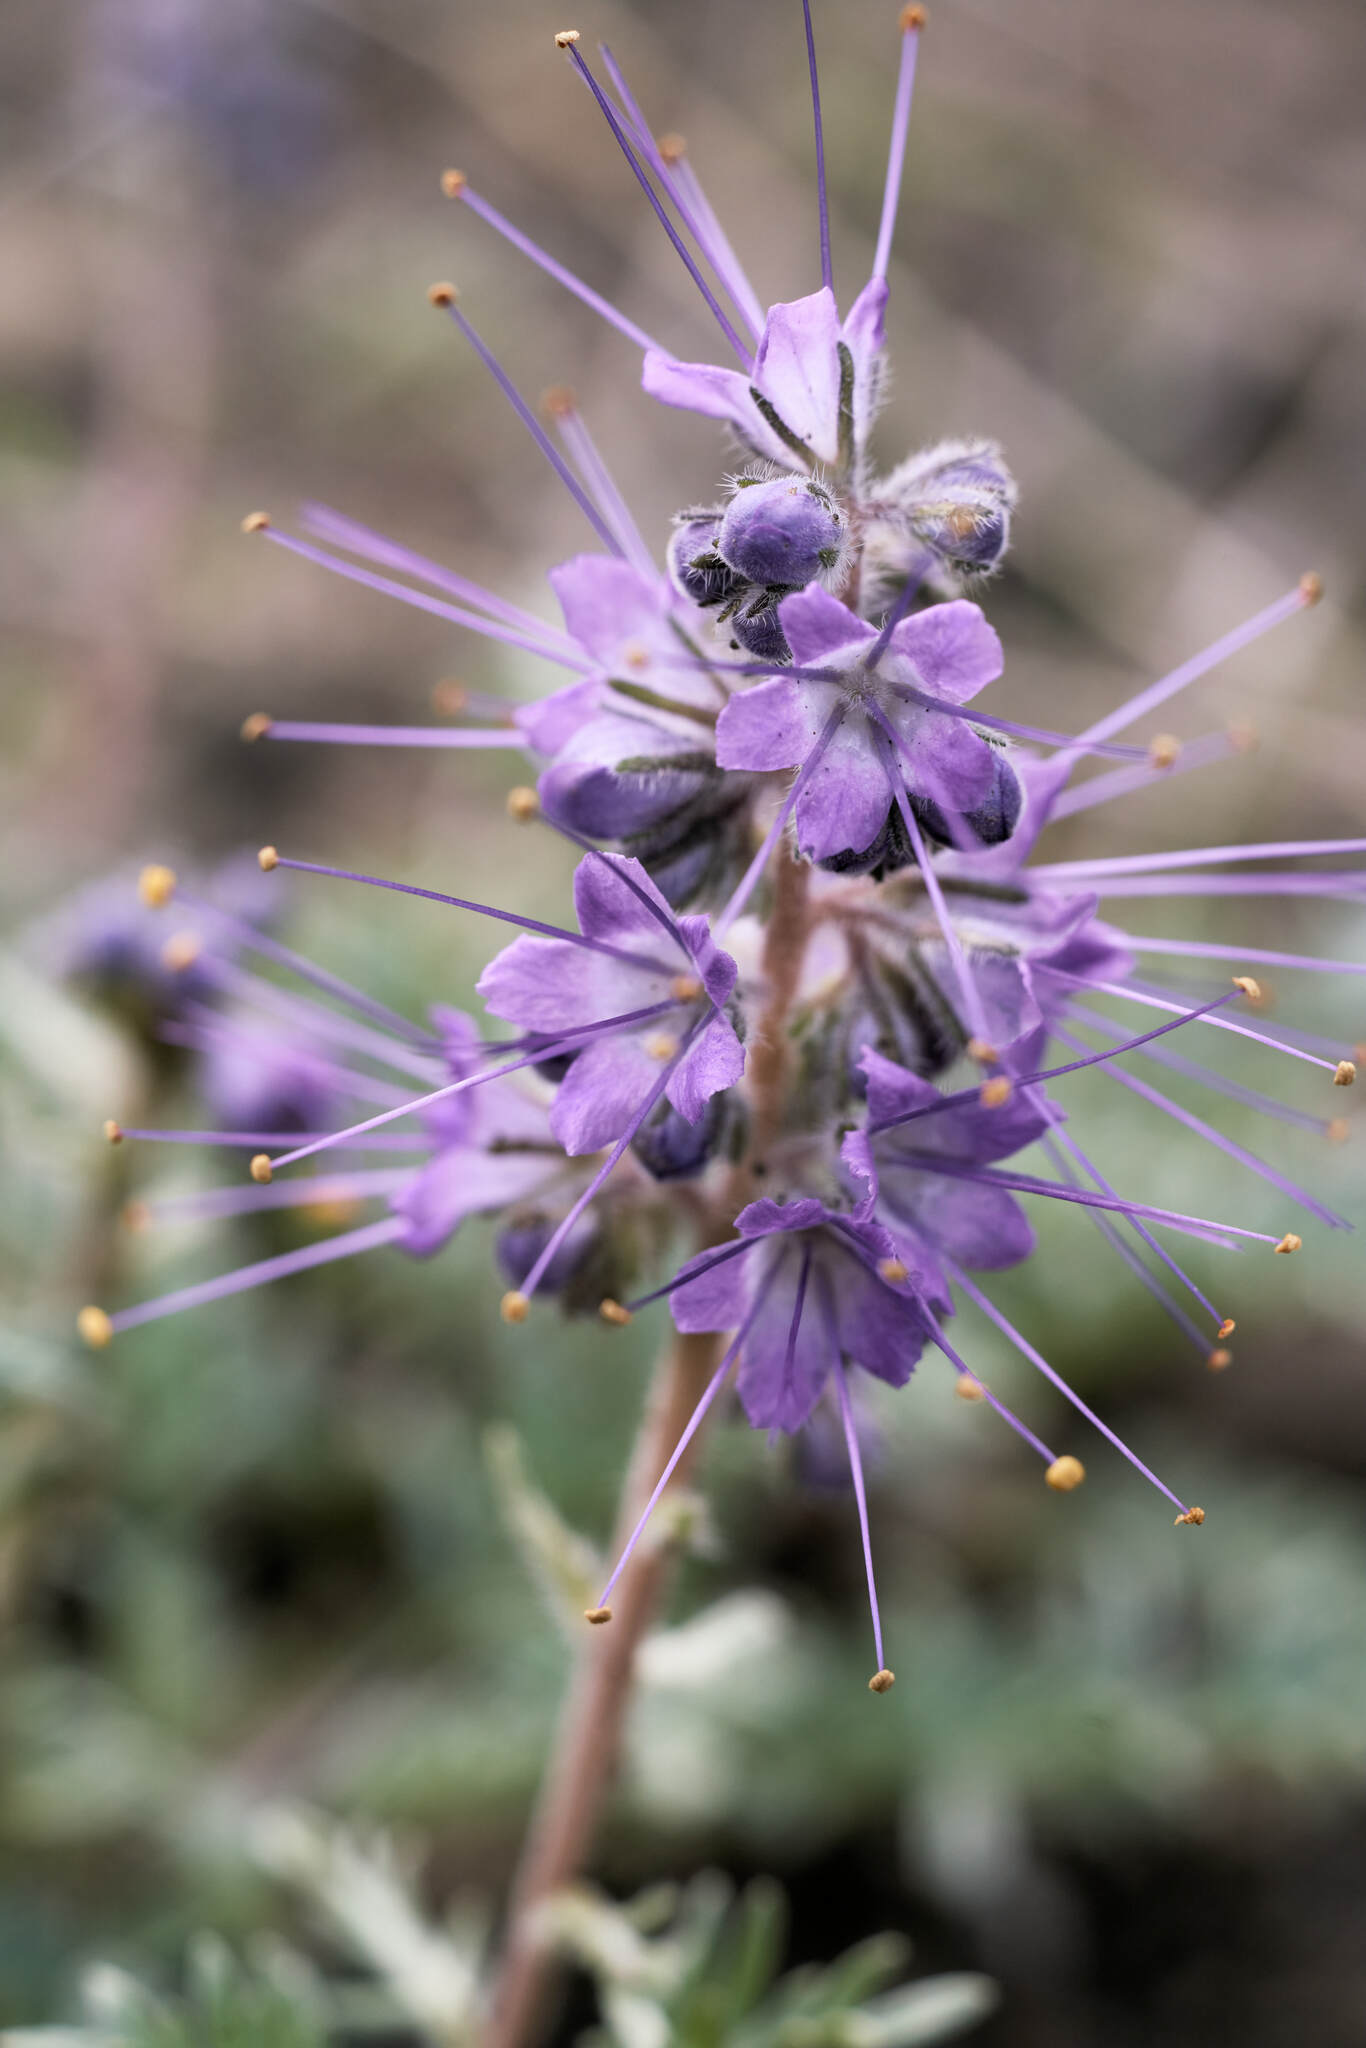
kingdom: Plantae
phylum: Tracheophyta
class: Magnoliopsida
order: Boraginales
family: Hydrophyllaceae
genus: Phacelia
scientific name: Phacelia sericea
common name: Silky phacelia
